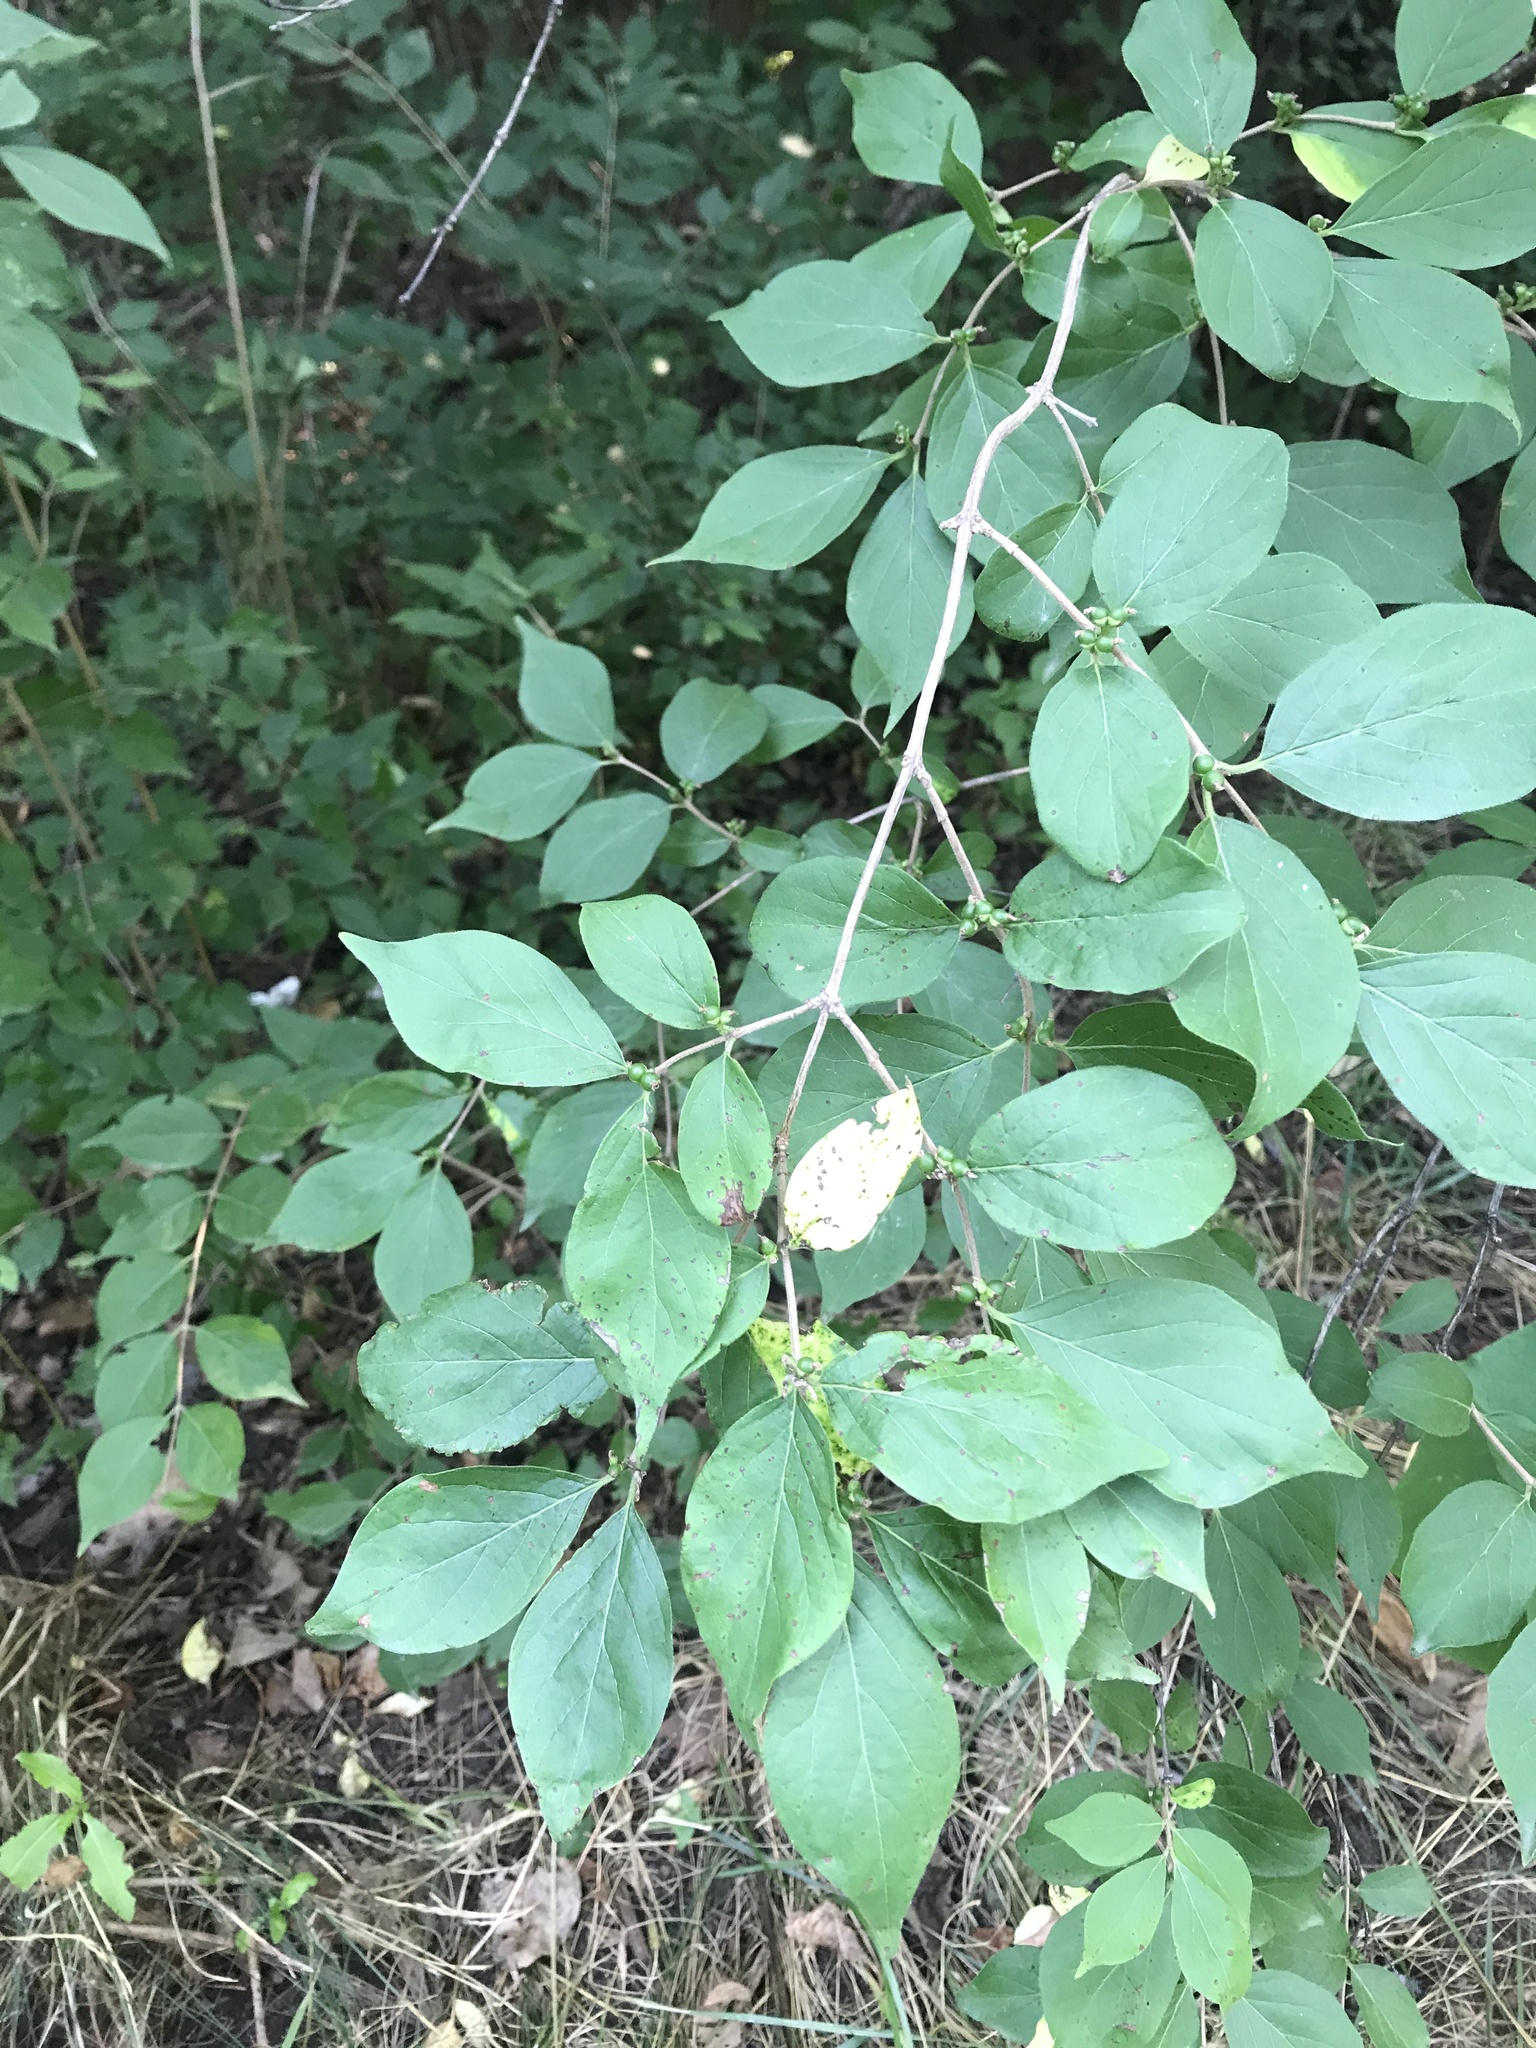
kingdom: Plantae
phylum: Tracheophyta
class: Magnoliopsida
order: Dipsacales
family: Caprifoliaceae
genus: Lonicera
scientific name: Lonicera maackii
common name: Amur honeysuckle
